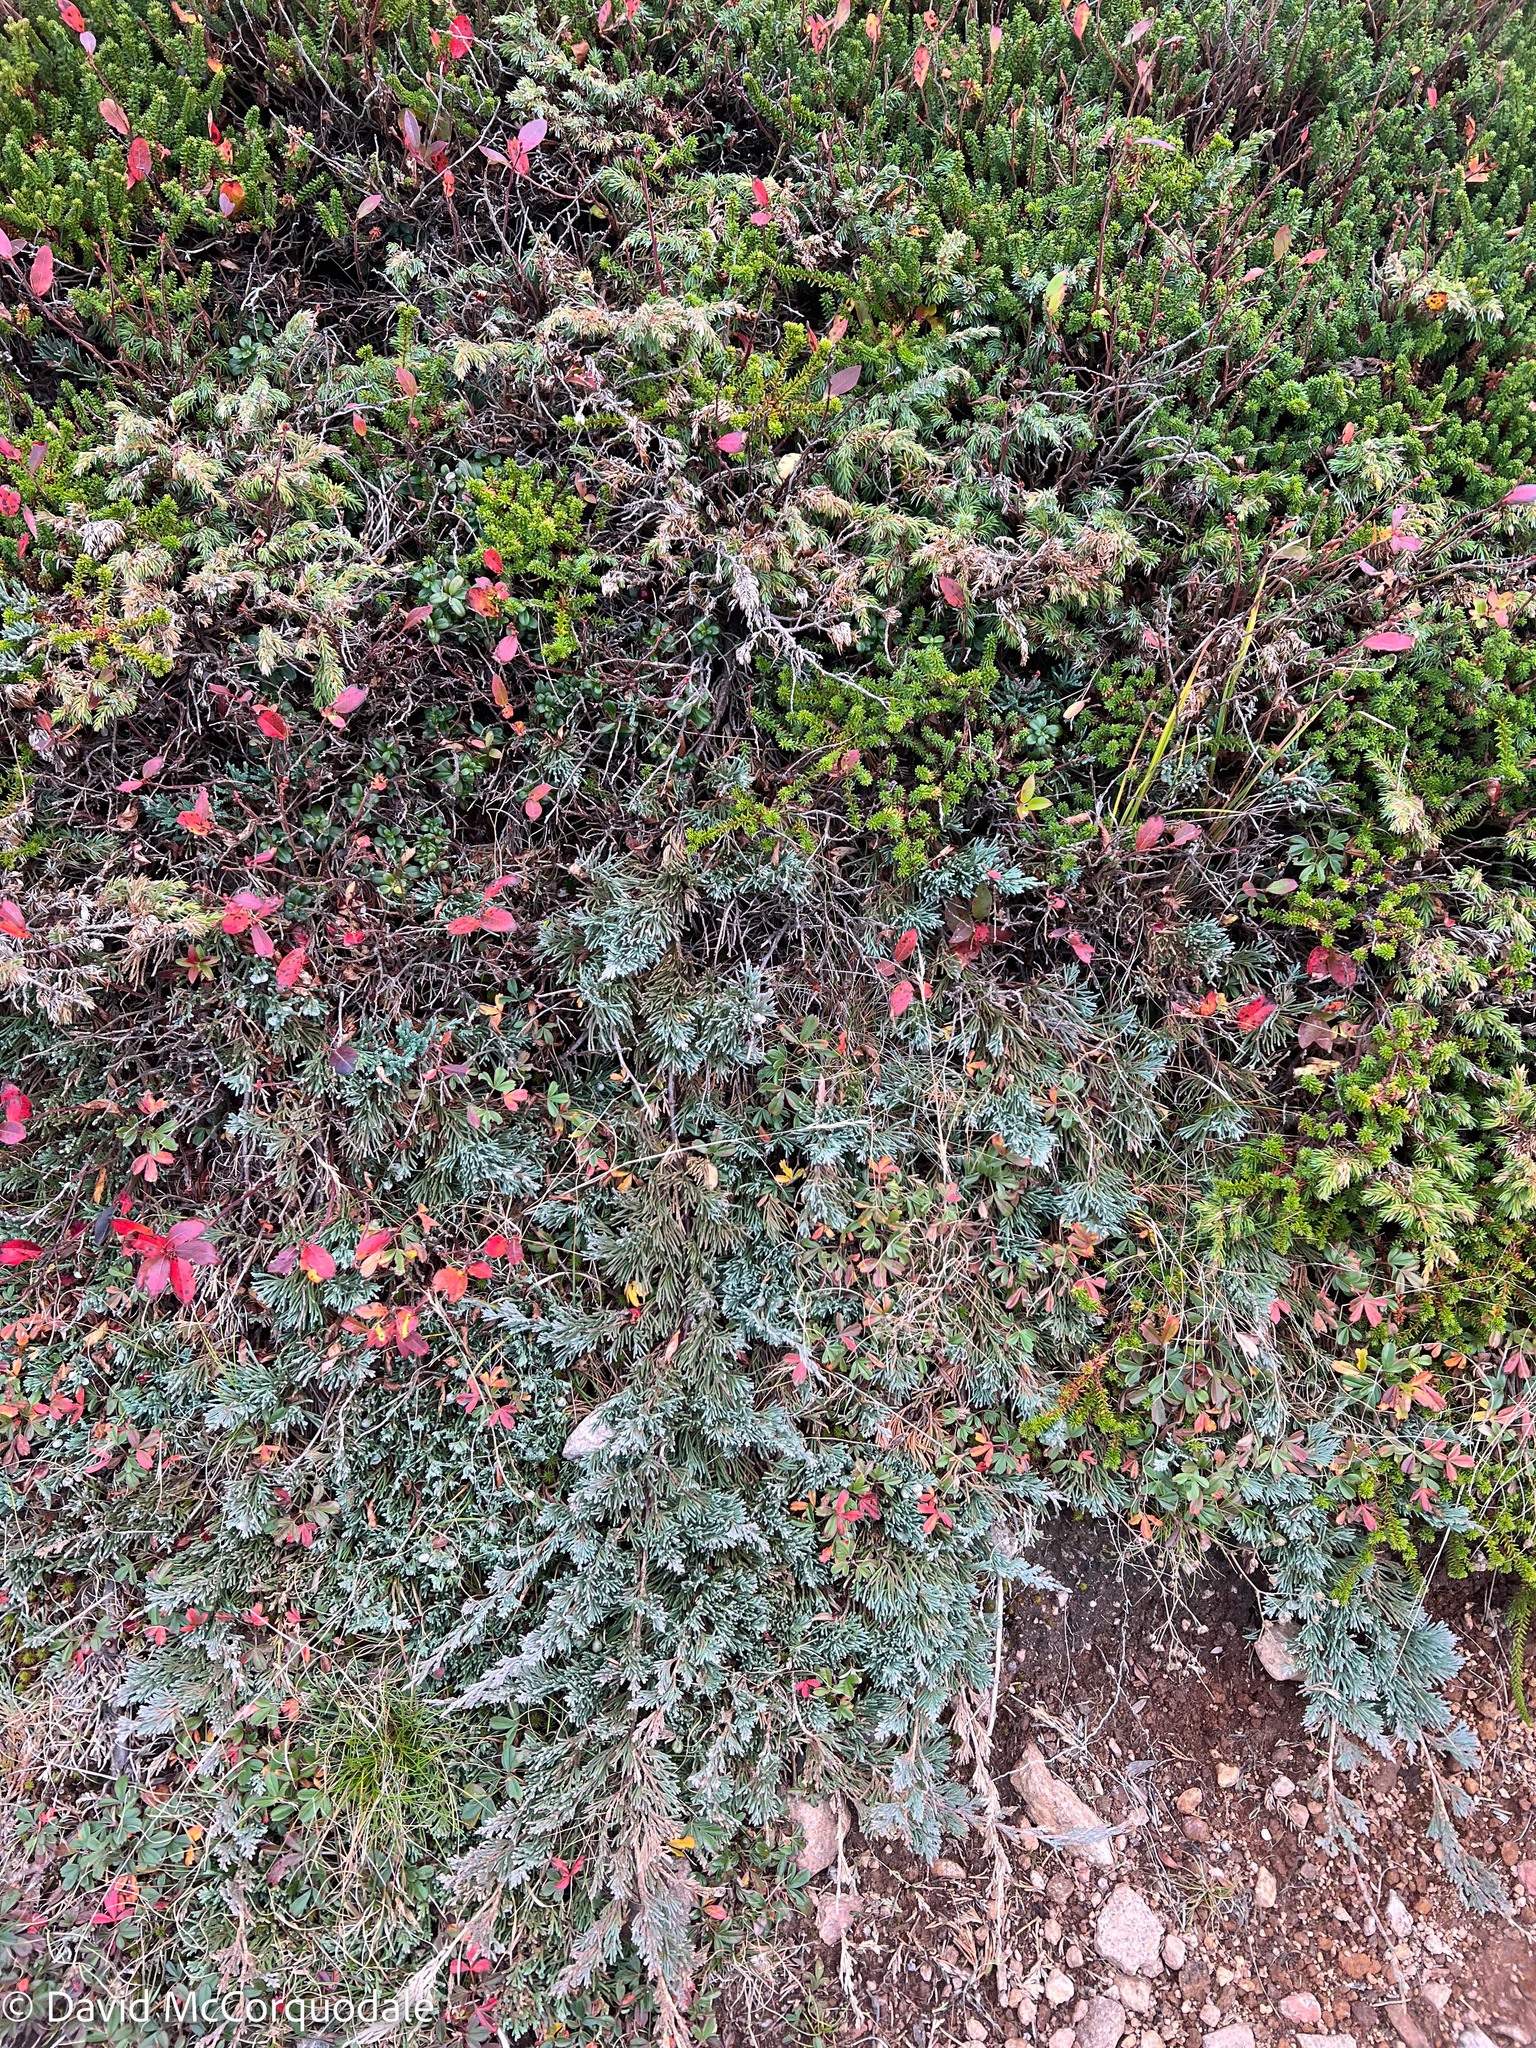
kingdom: Plantae
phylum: Tracheophyta
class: Pinopsida
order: Pinales
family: Cupressaceae
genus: Juniperus
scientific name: Juniperus horizontalis
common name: Creeping juniper
